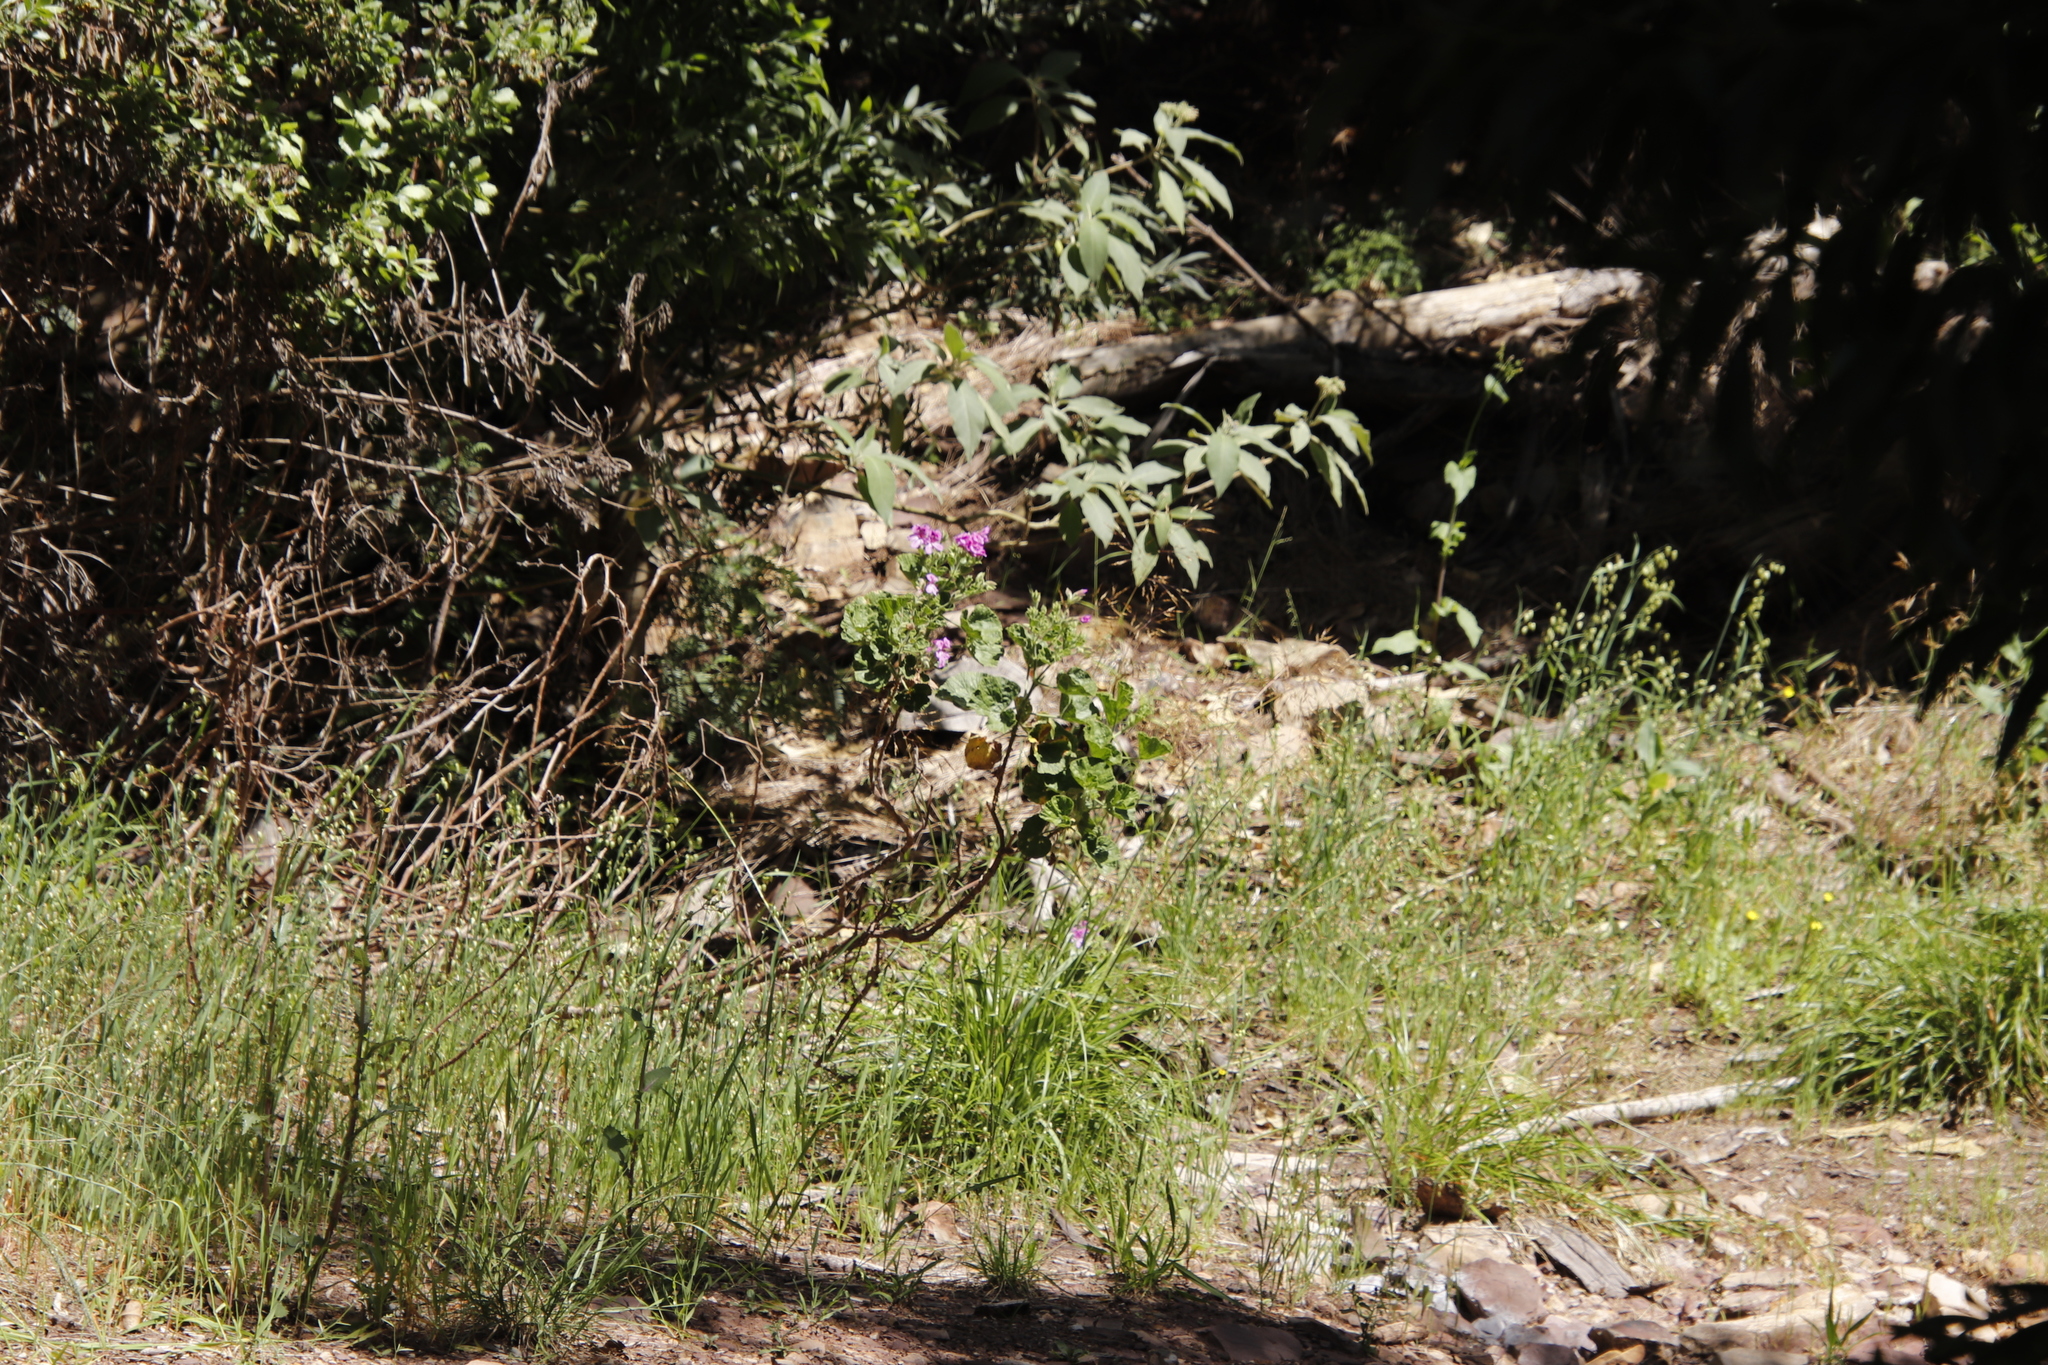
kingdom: Plantae
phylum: Tracheophyta
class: Magnoliopsida
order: Geraniales
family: Geraniaceae
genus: Pelargonium
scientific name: Pelargonium cucullatum
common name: Tree pelargonium
